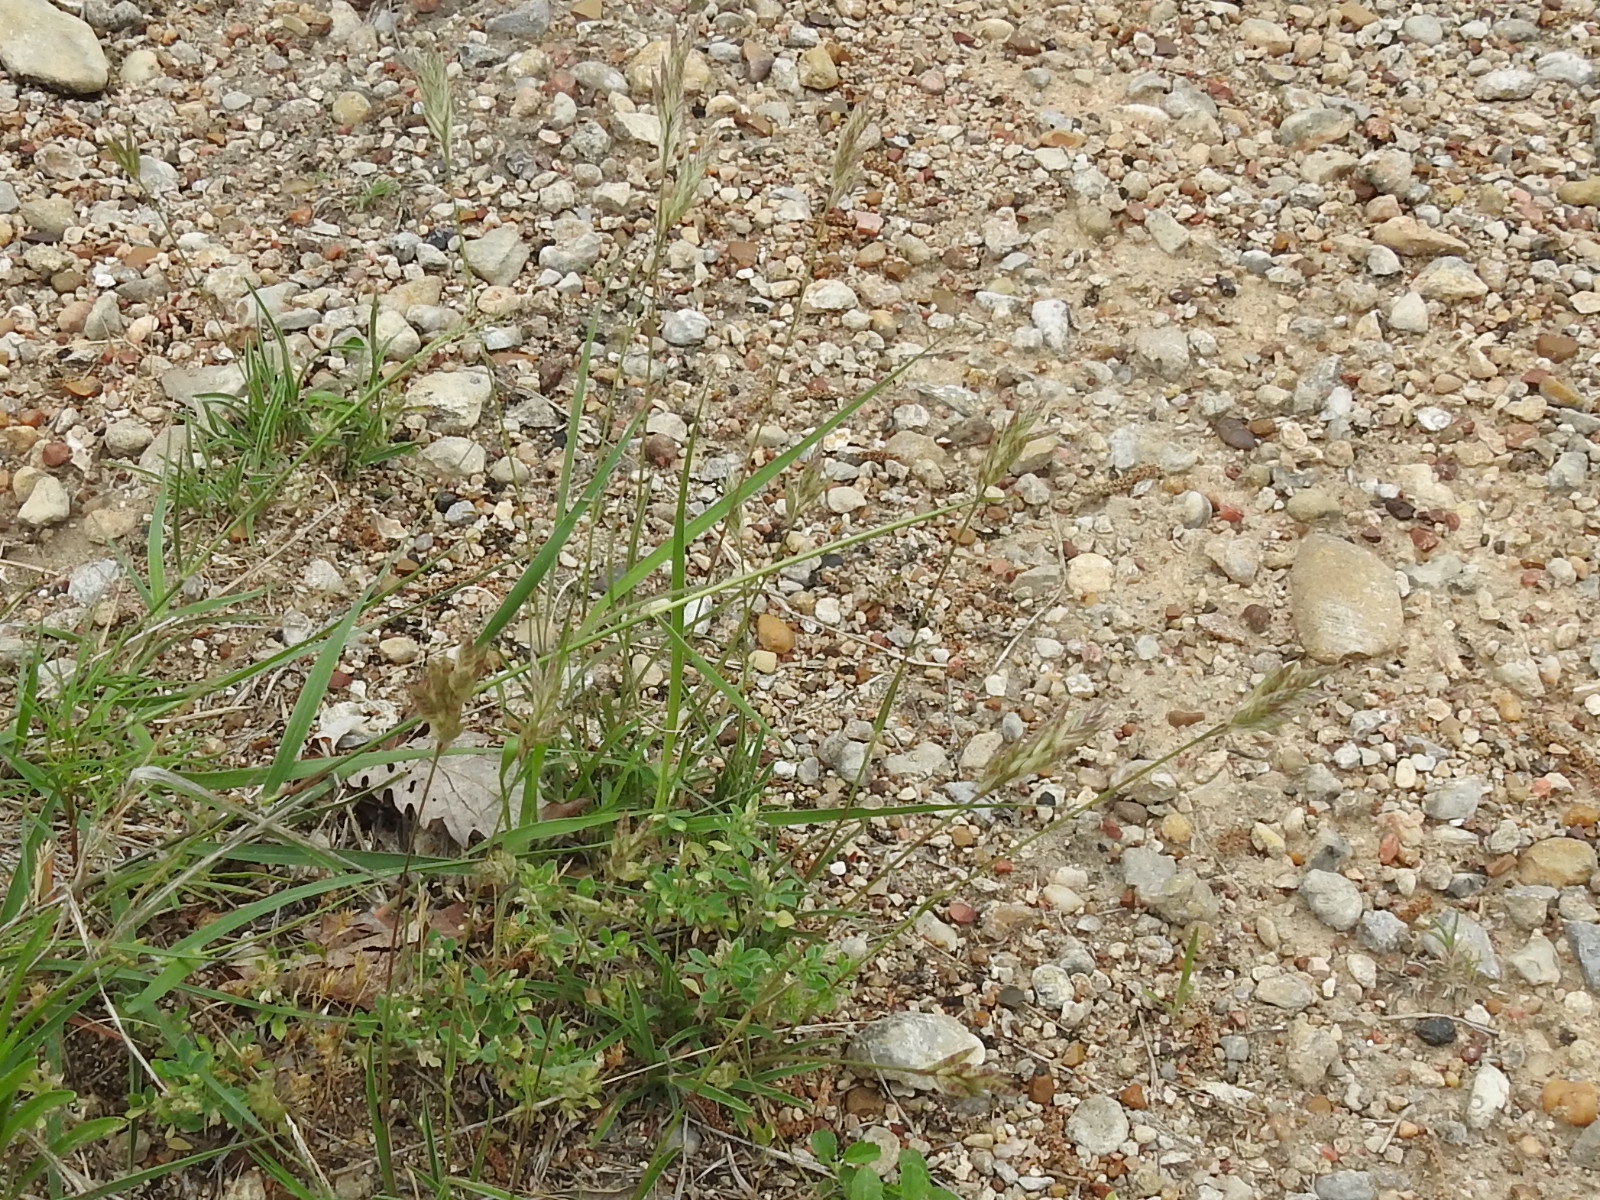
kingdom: Plantae
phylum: Tracheophyta
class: Liliopsida
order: Poales
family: Poaceae
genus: Erioneuron
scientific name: Erioneuron pilosum
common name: Hairy woolly grass
